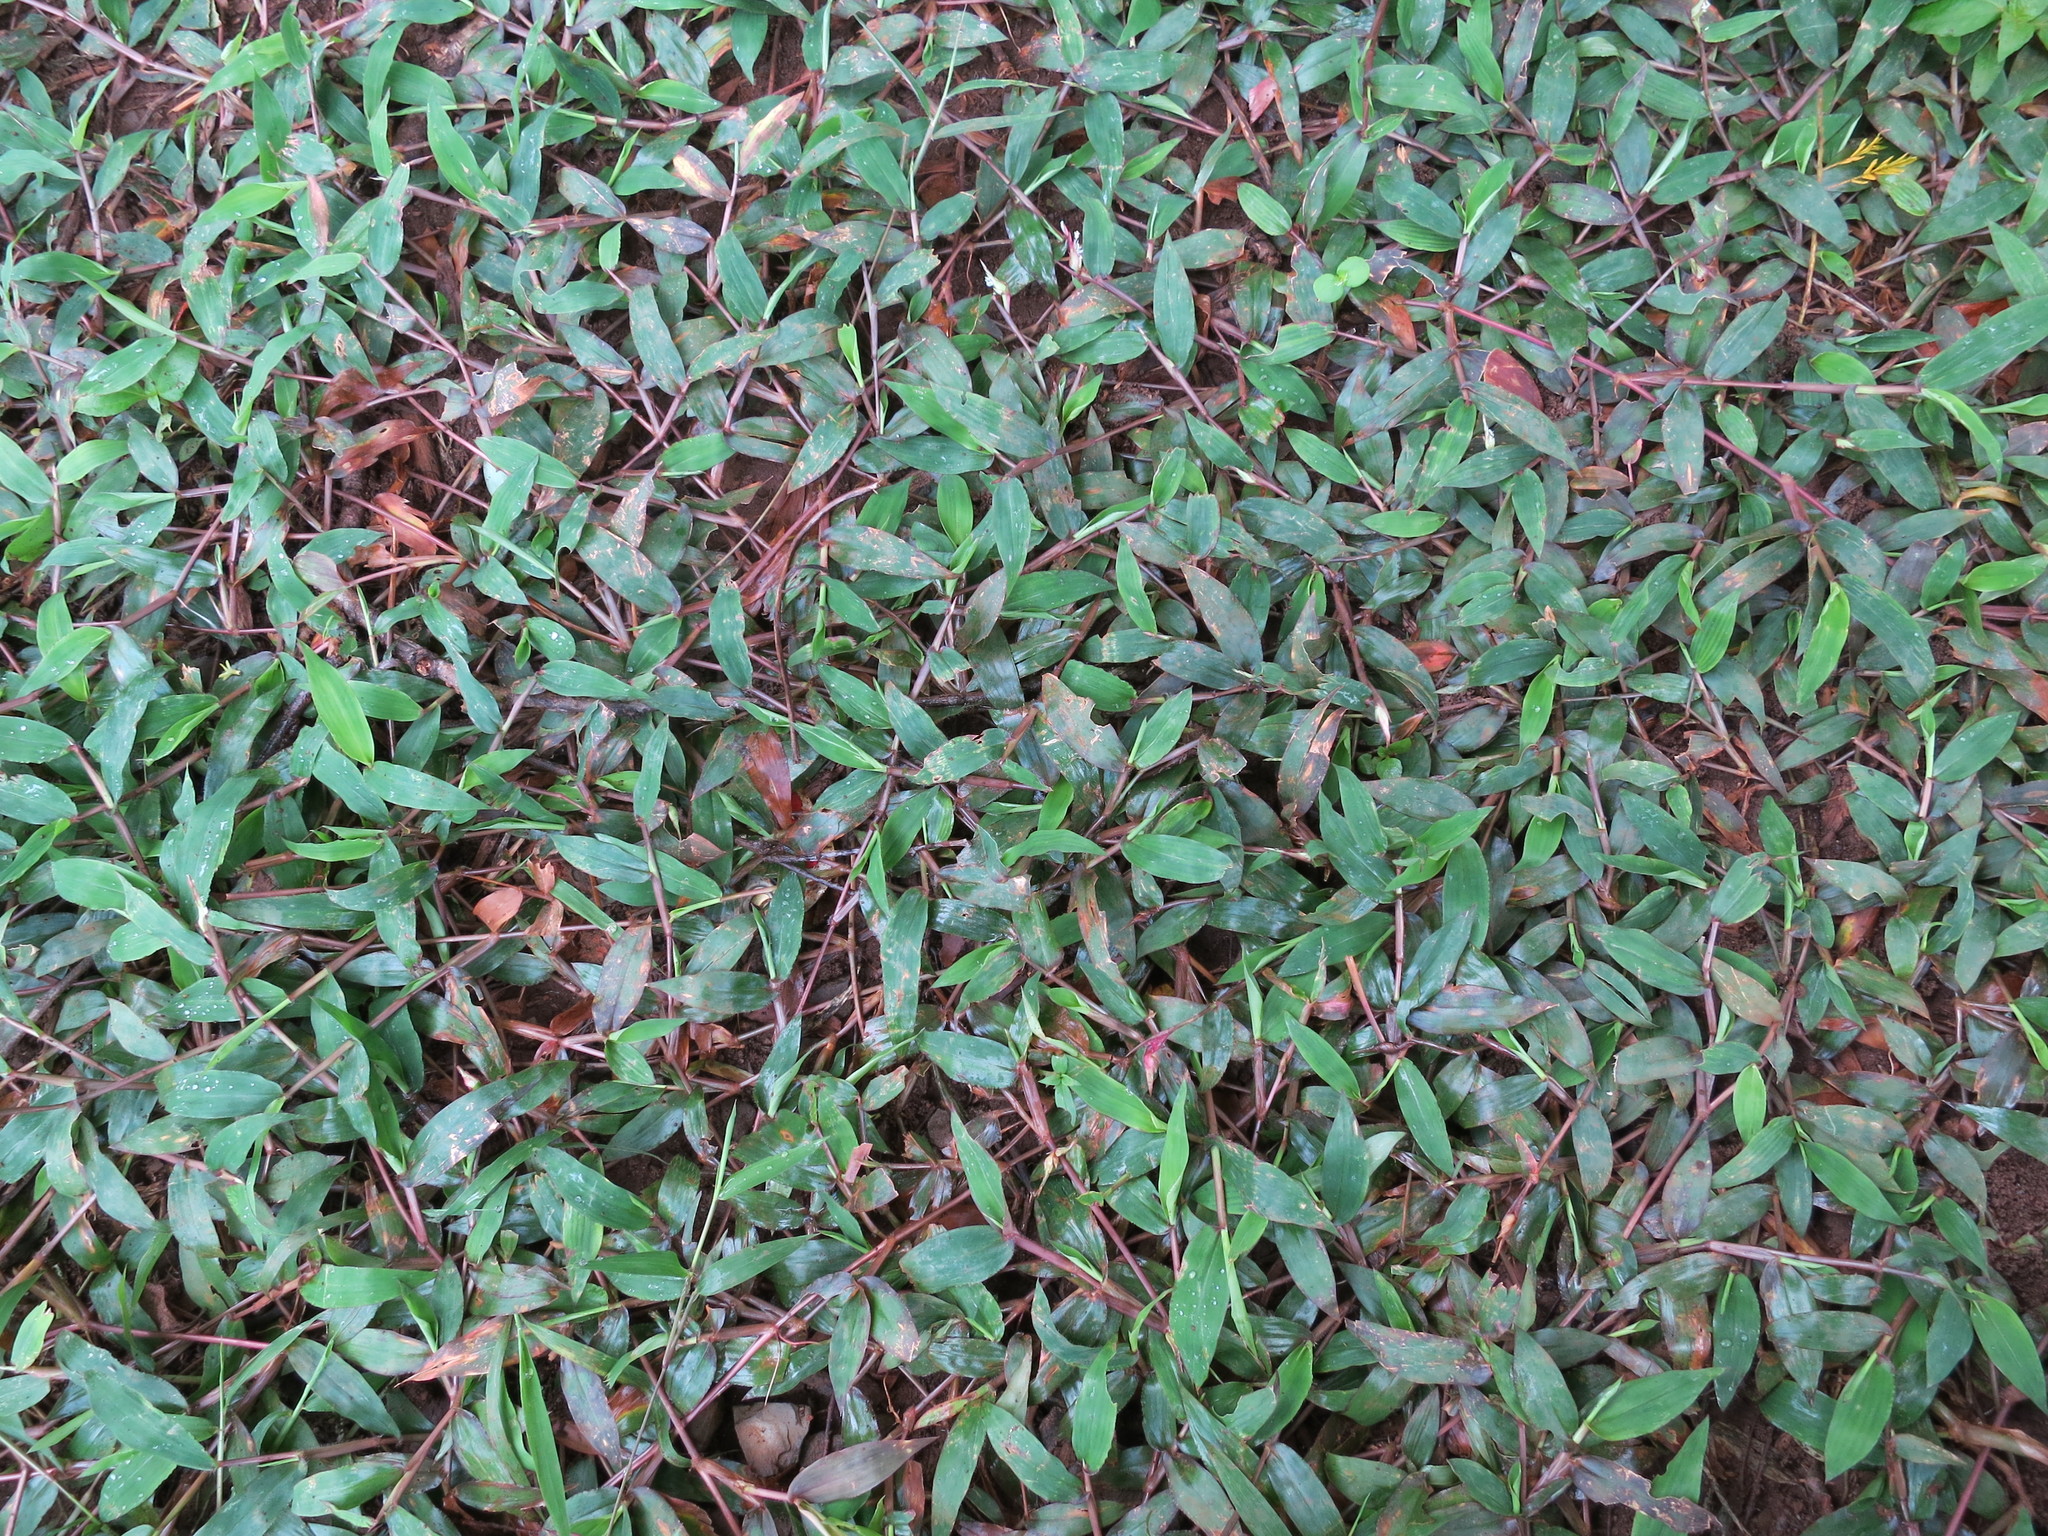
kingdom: Plantae
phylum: Tracheophyta
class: Liliopsida
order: Poales
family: Poaceae
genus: Thuarea
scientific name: Thuarea perrieri
